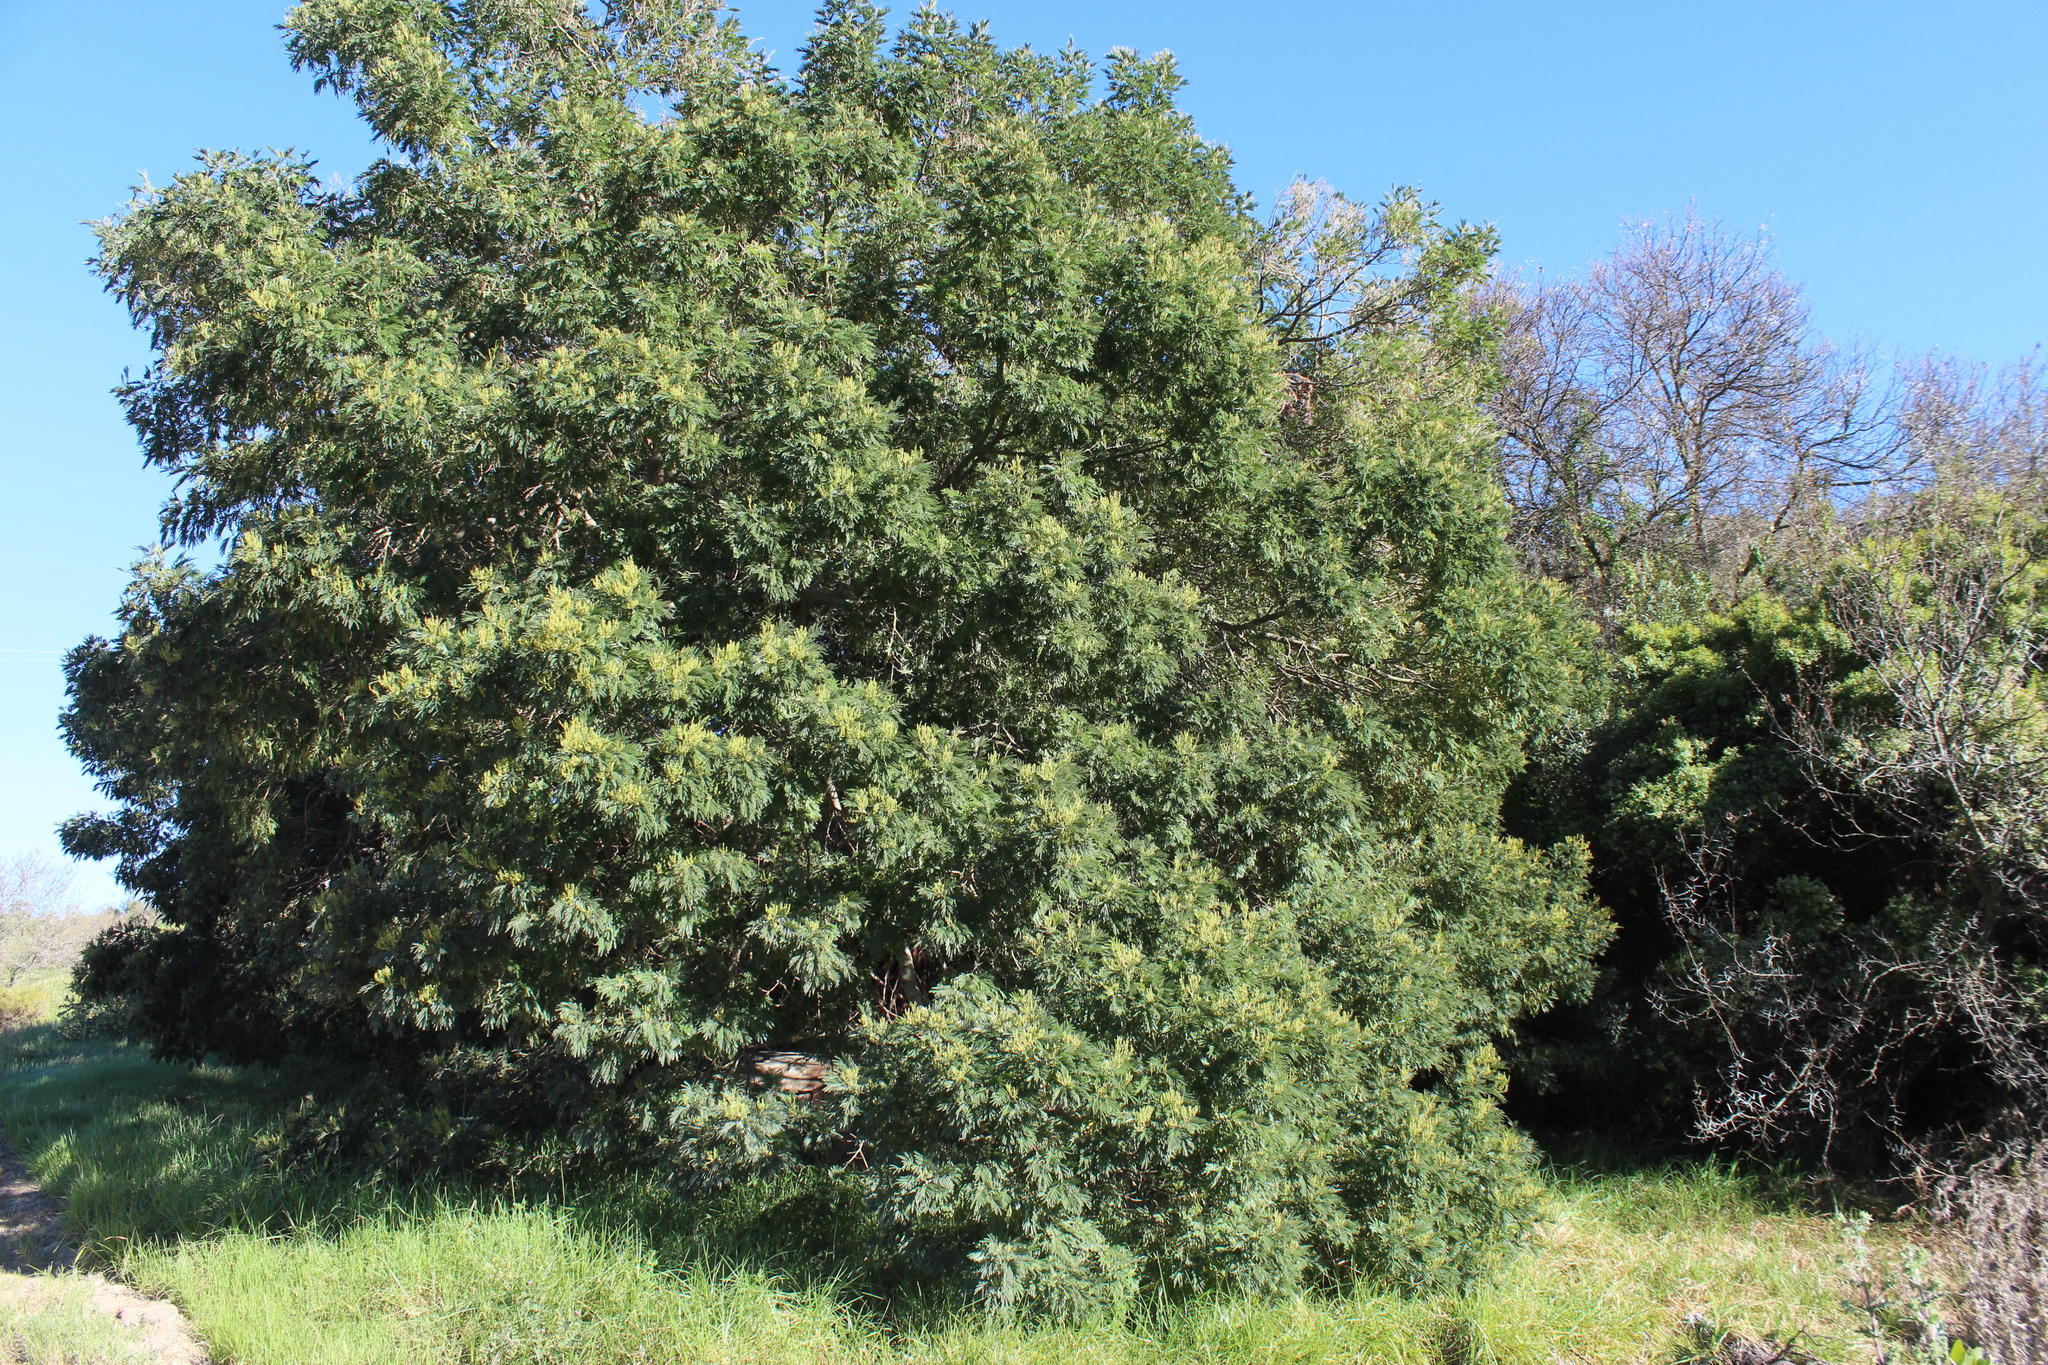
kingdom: Plantae
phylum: Tracheophyta
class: Magnoliopsida
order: Fabales
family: Fabaceae
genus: Acacia
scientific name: Acacia mearnsii
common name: Black wattle
